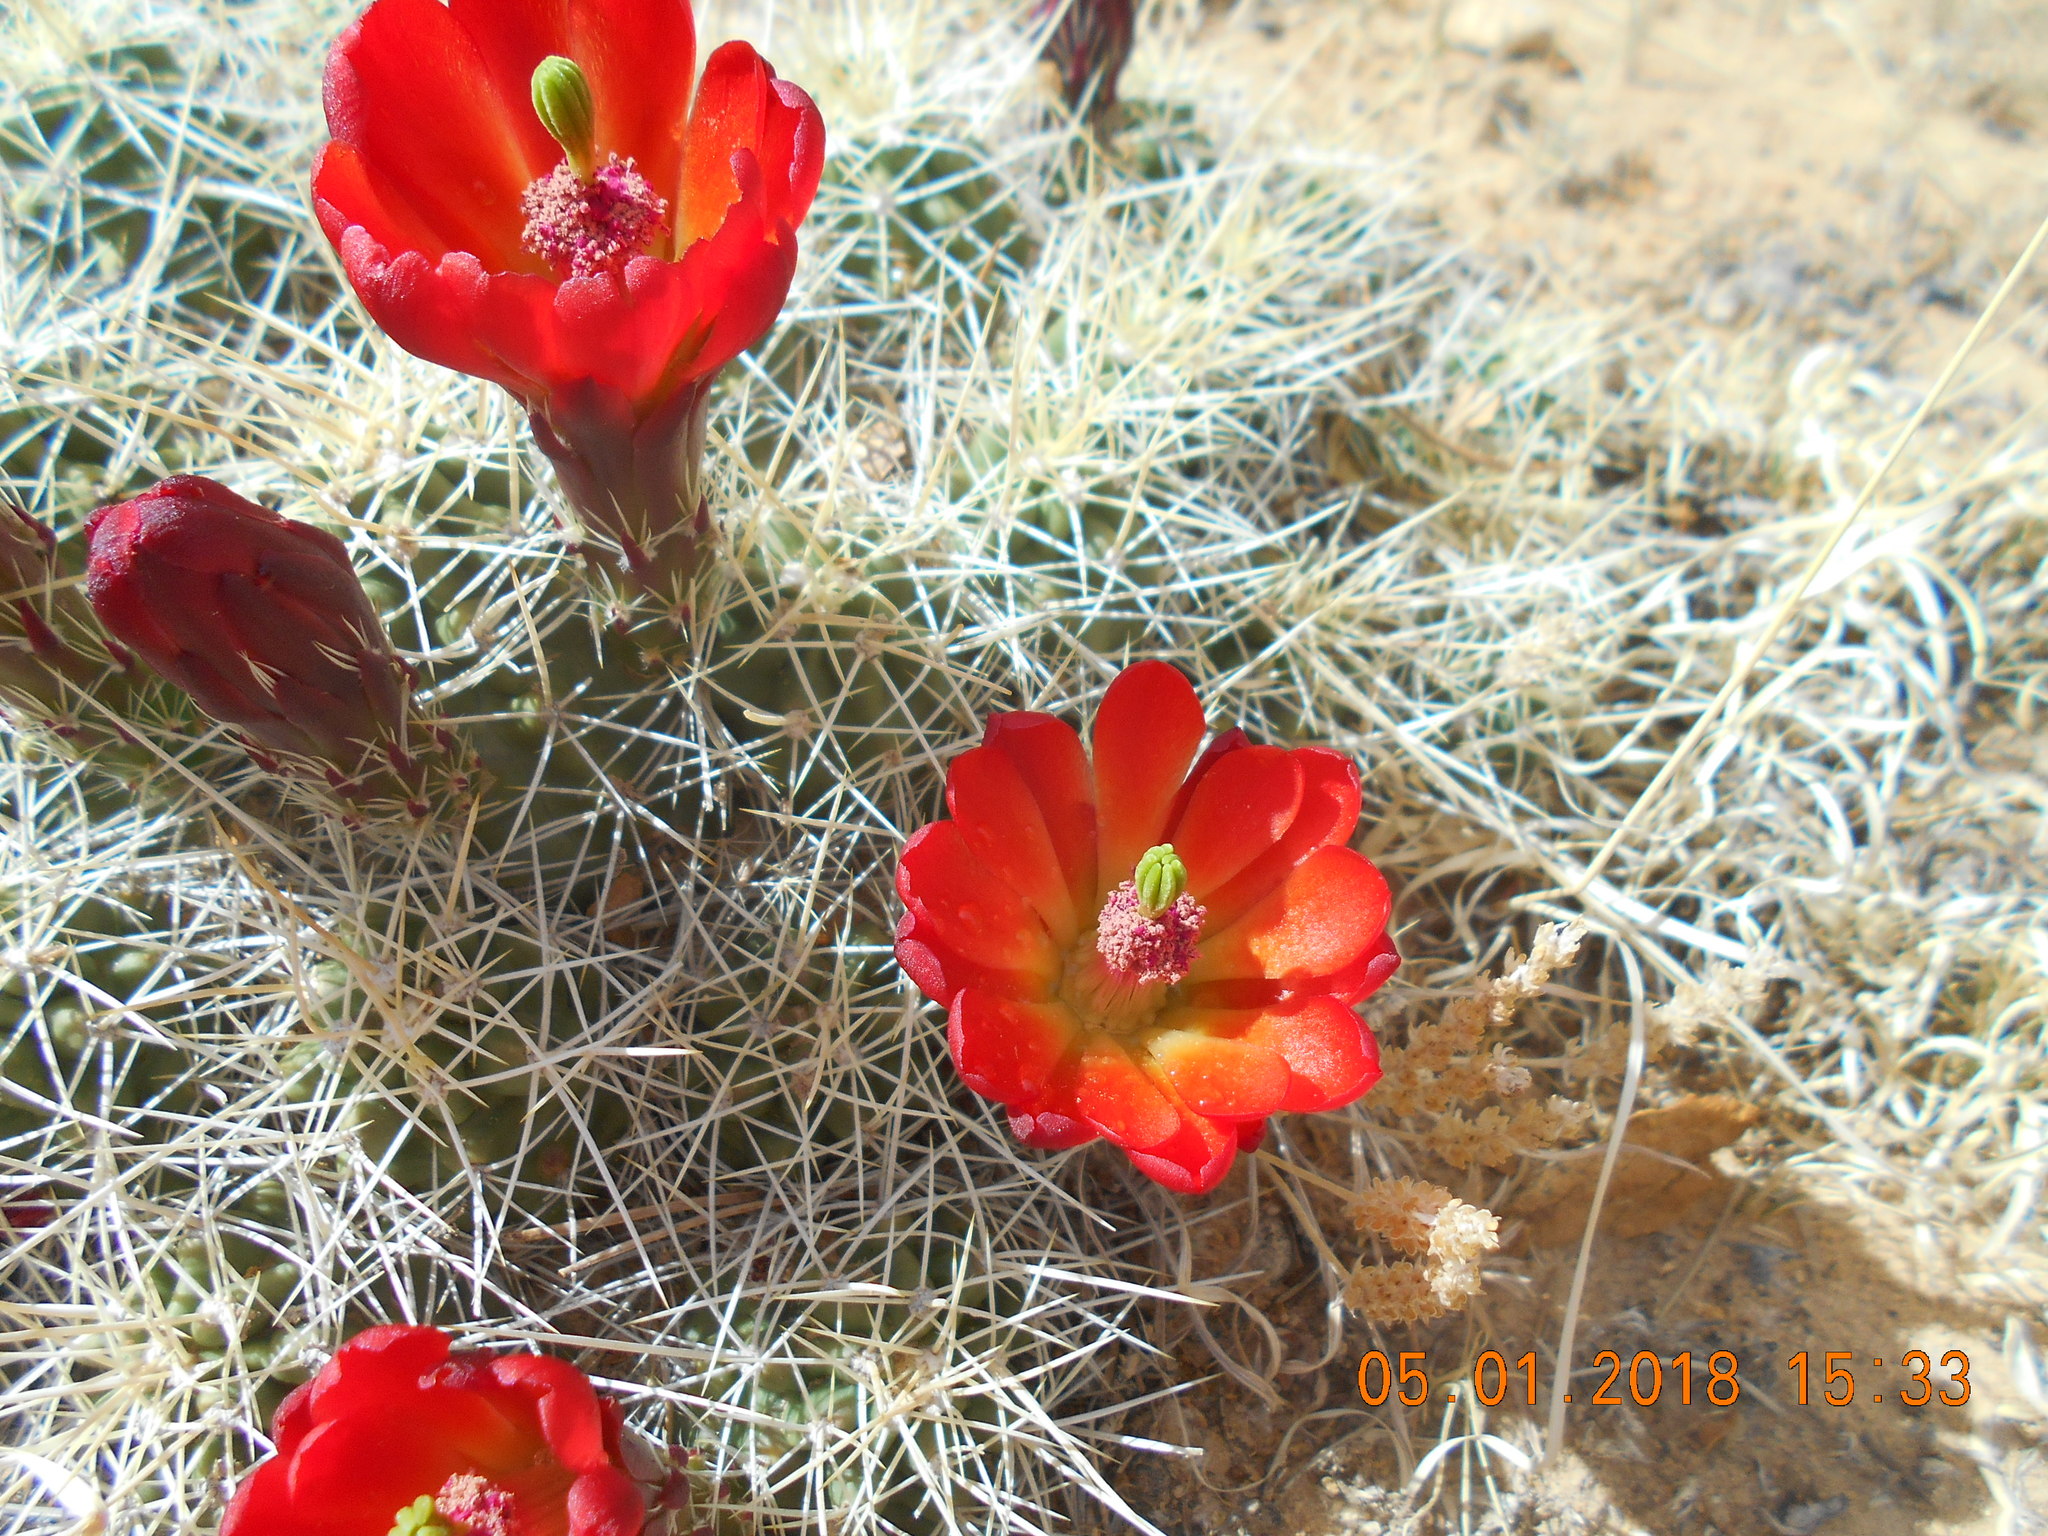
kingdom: Plantae
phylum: Tracheophyta
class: Magnoliopsida
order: Caryophyllales
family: Cactaceae
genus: Echinocereus
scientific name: Echinocereus triglochidiatus
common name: Claretcup hedgehog
